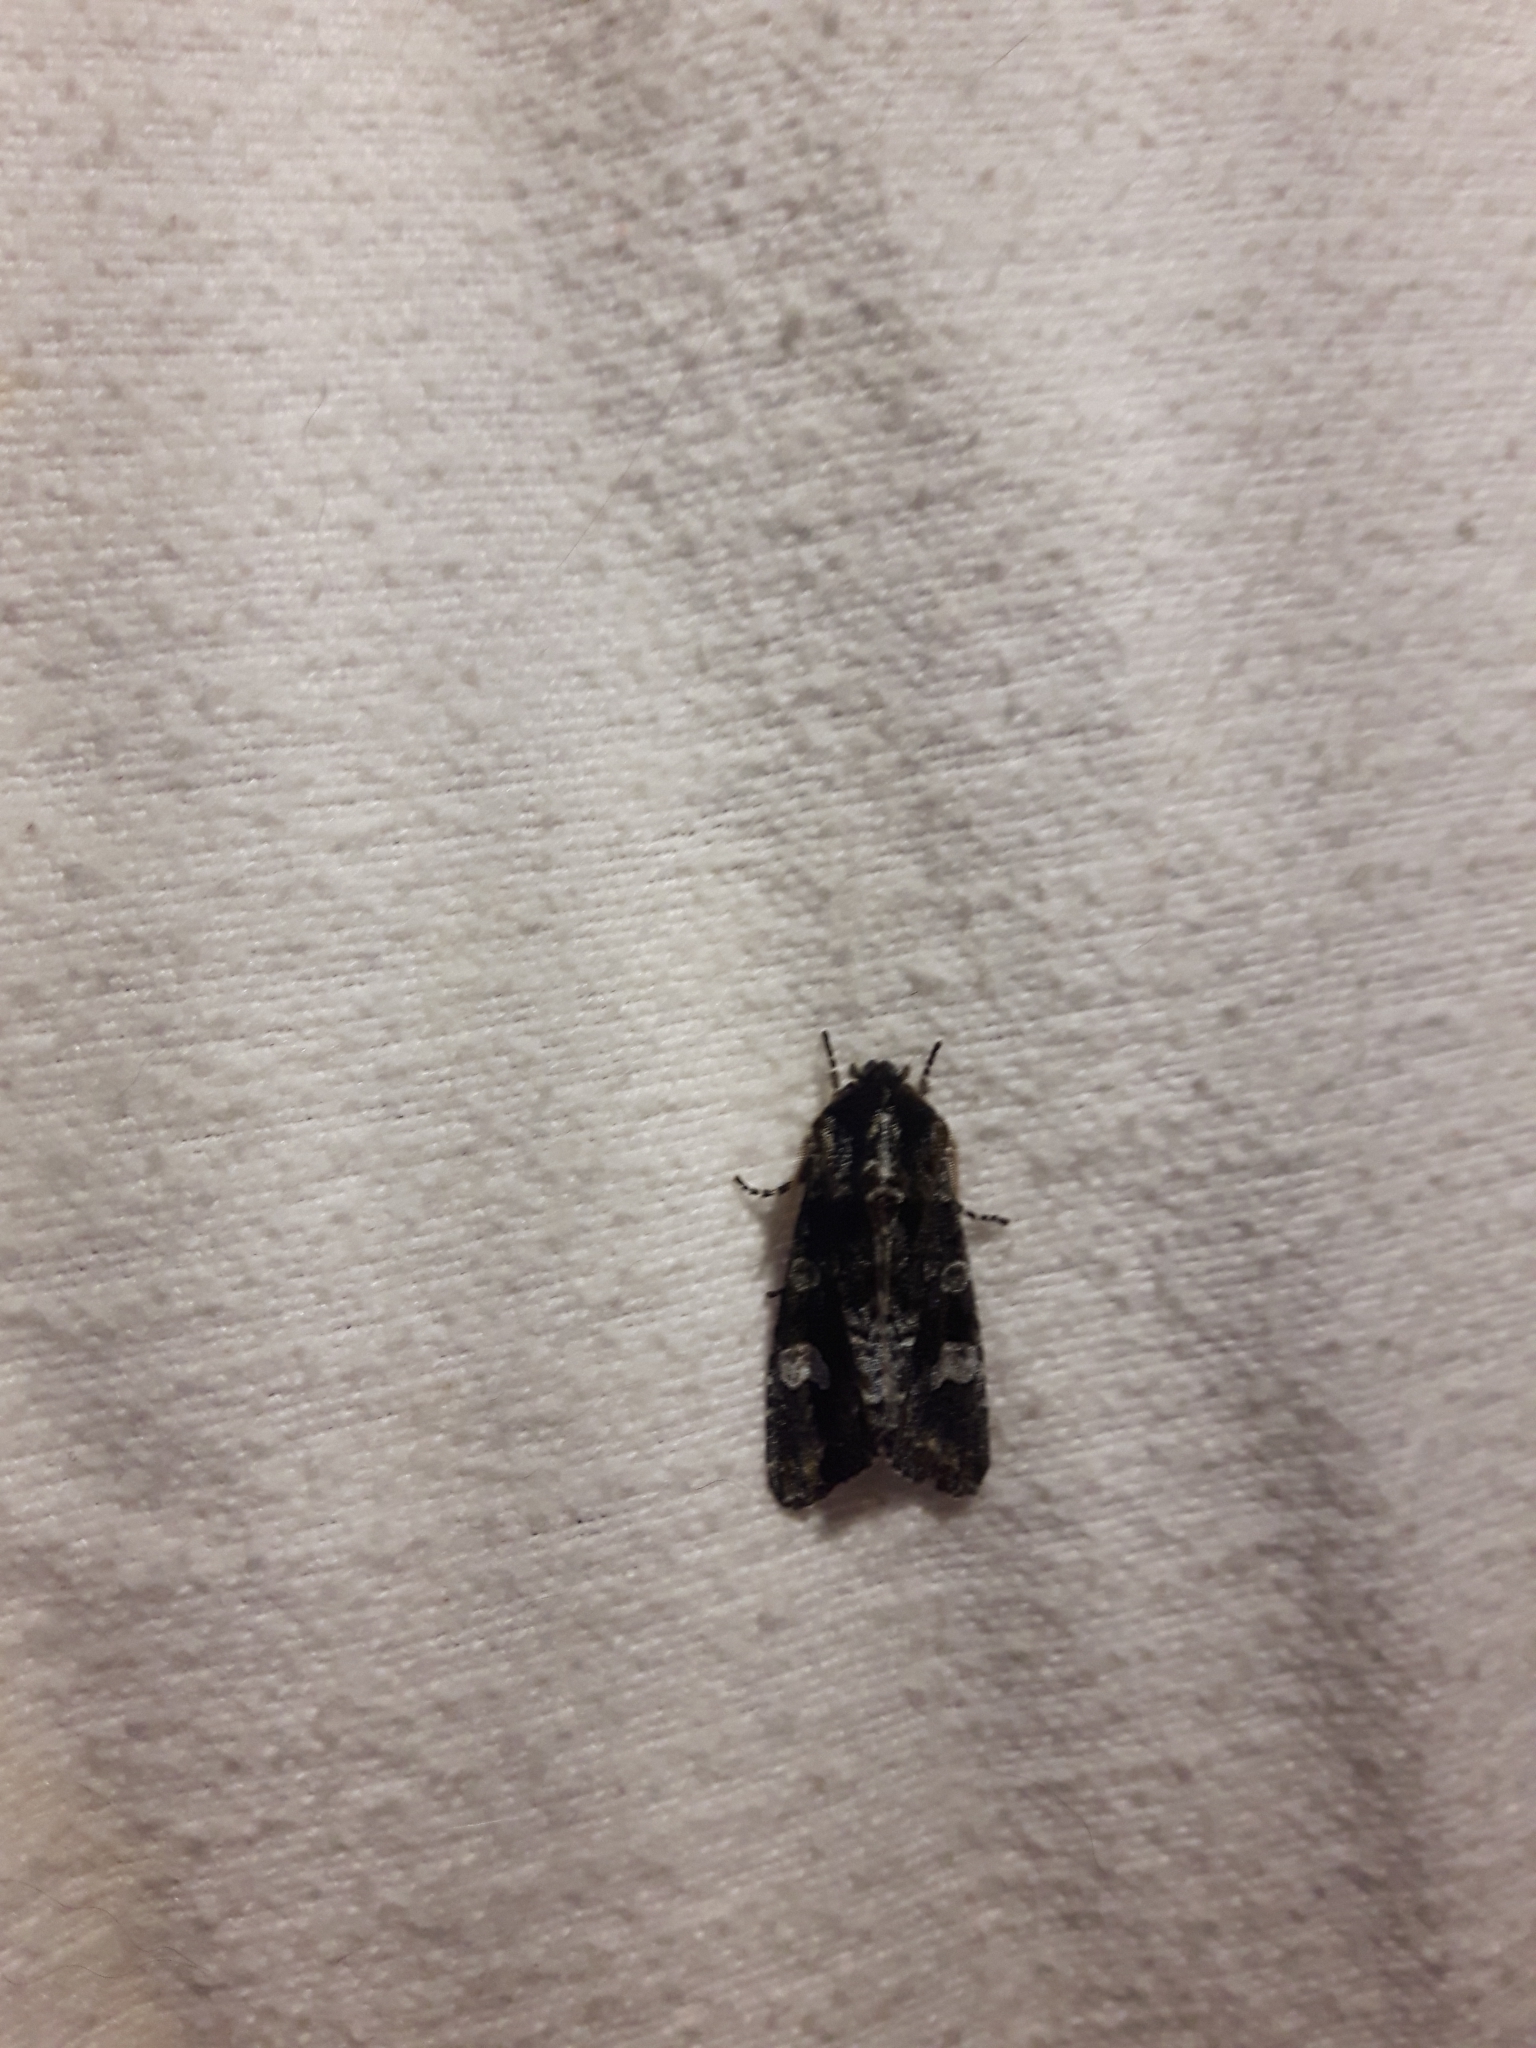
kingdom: Animalia
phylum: Arthropoda
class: Insecta
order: Lepidoptera
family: Noctuidae
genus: Psaphida
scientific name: Psaphida grotei
